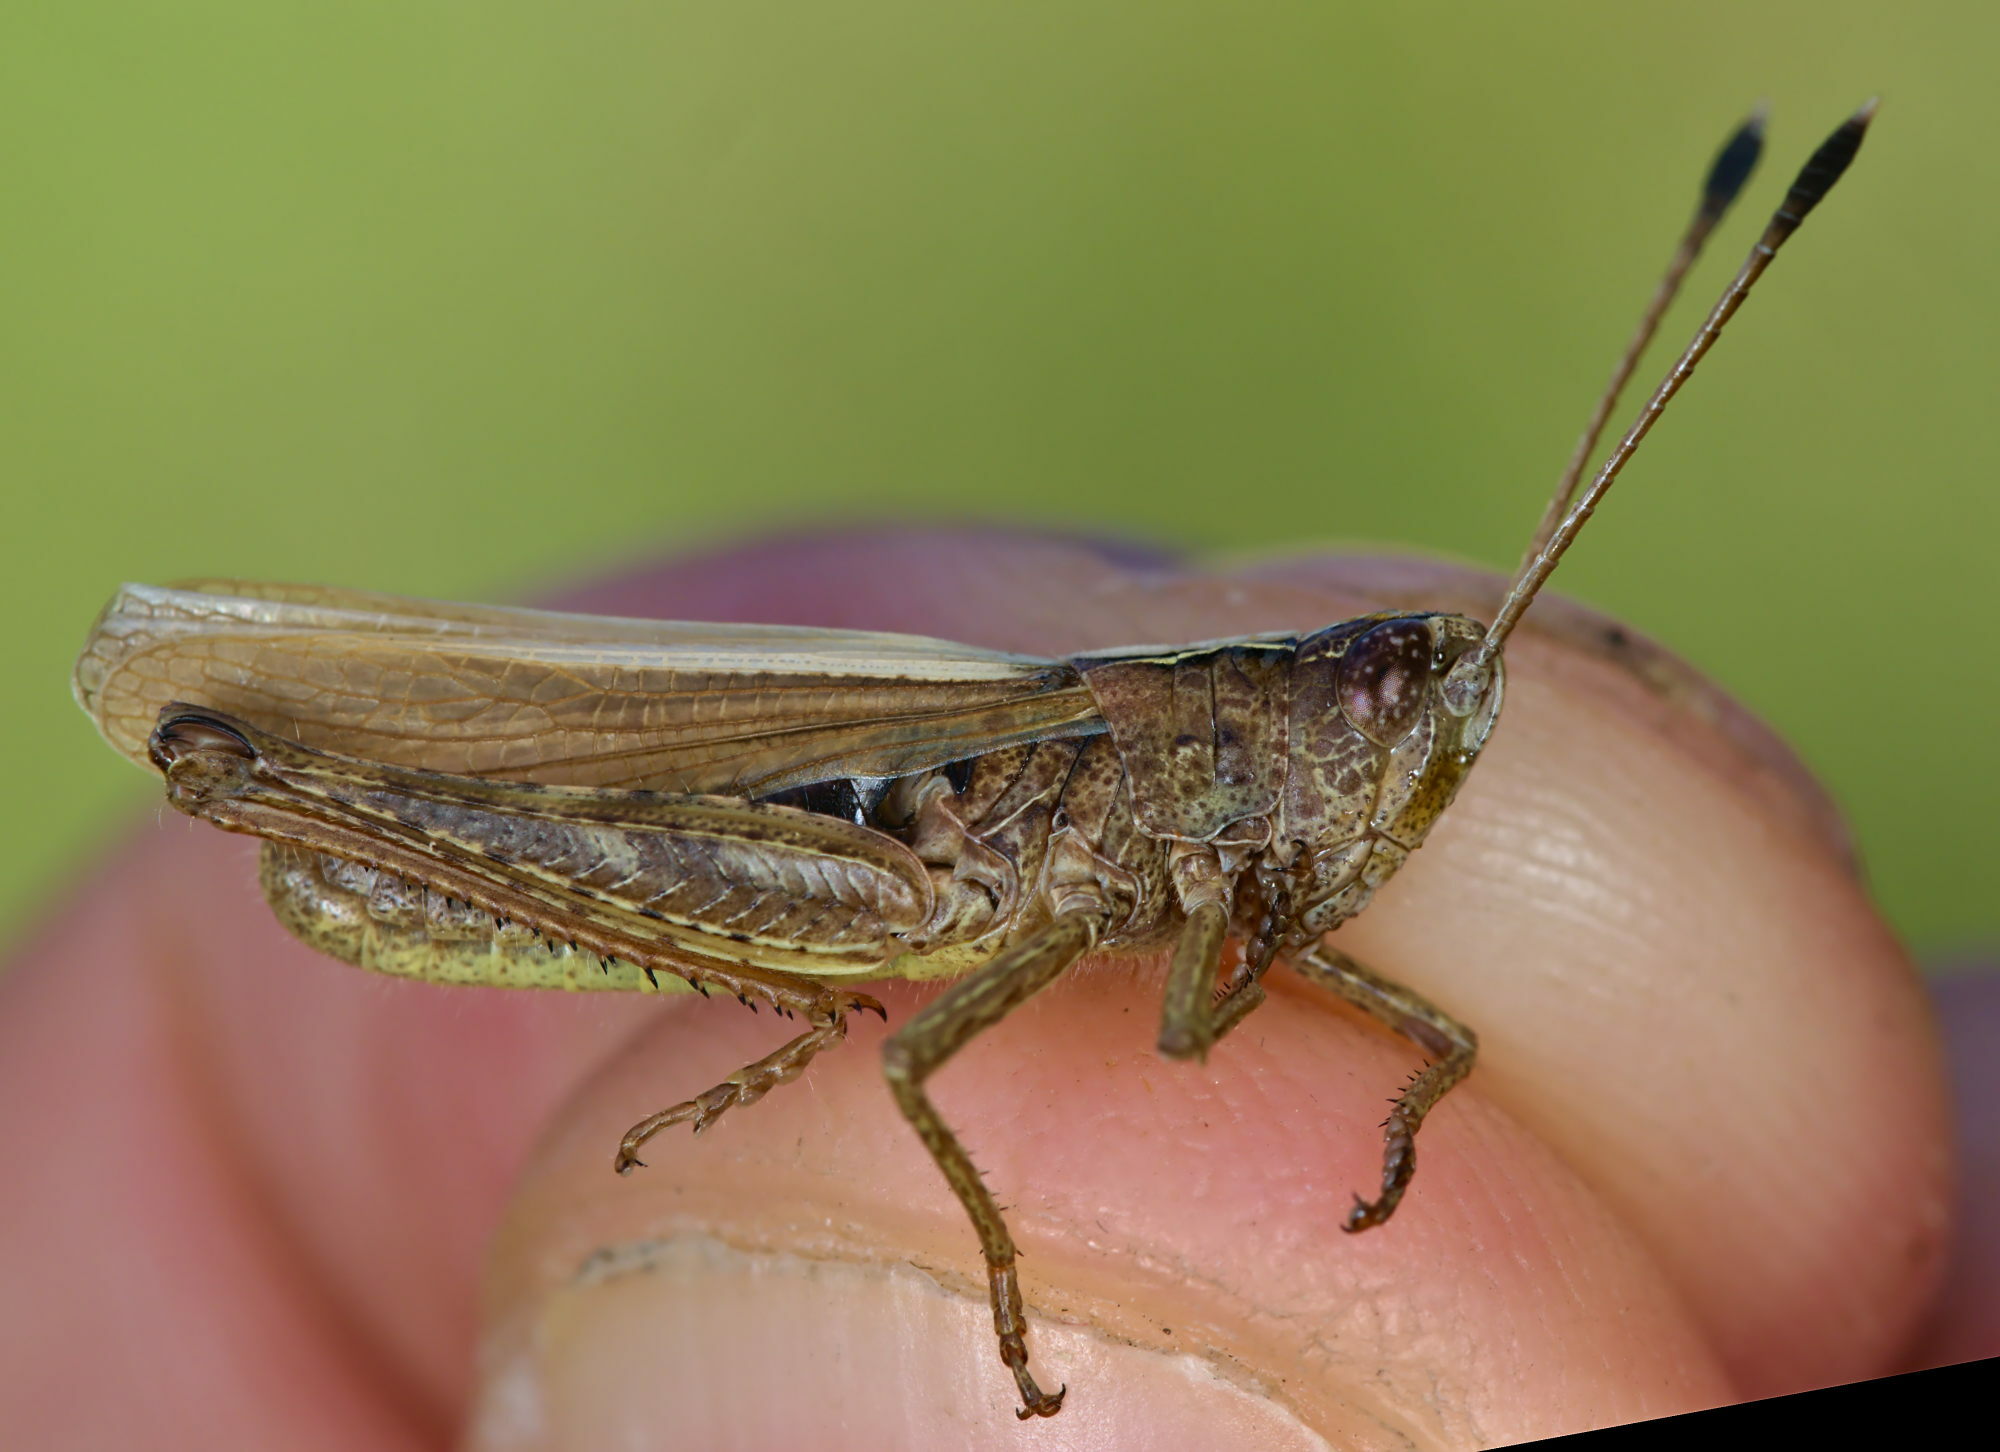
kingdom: Animalia
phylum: Arthropoda
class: Insecta
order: Orthoptera
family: Acrididae
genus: Gomphocerippus
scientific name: Gomphocerippus rufus
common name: Rufous grasshopper
